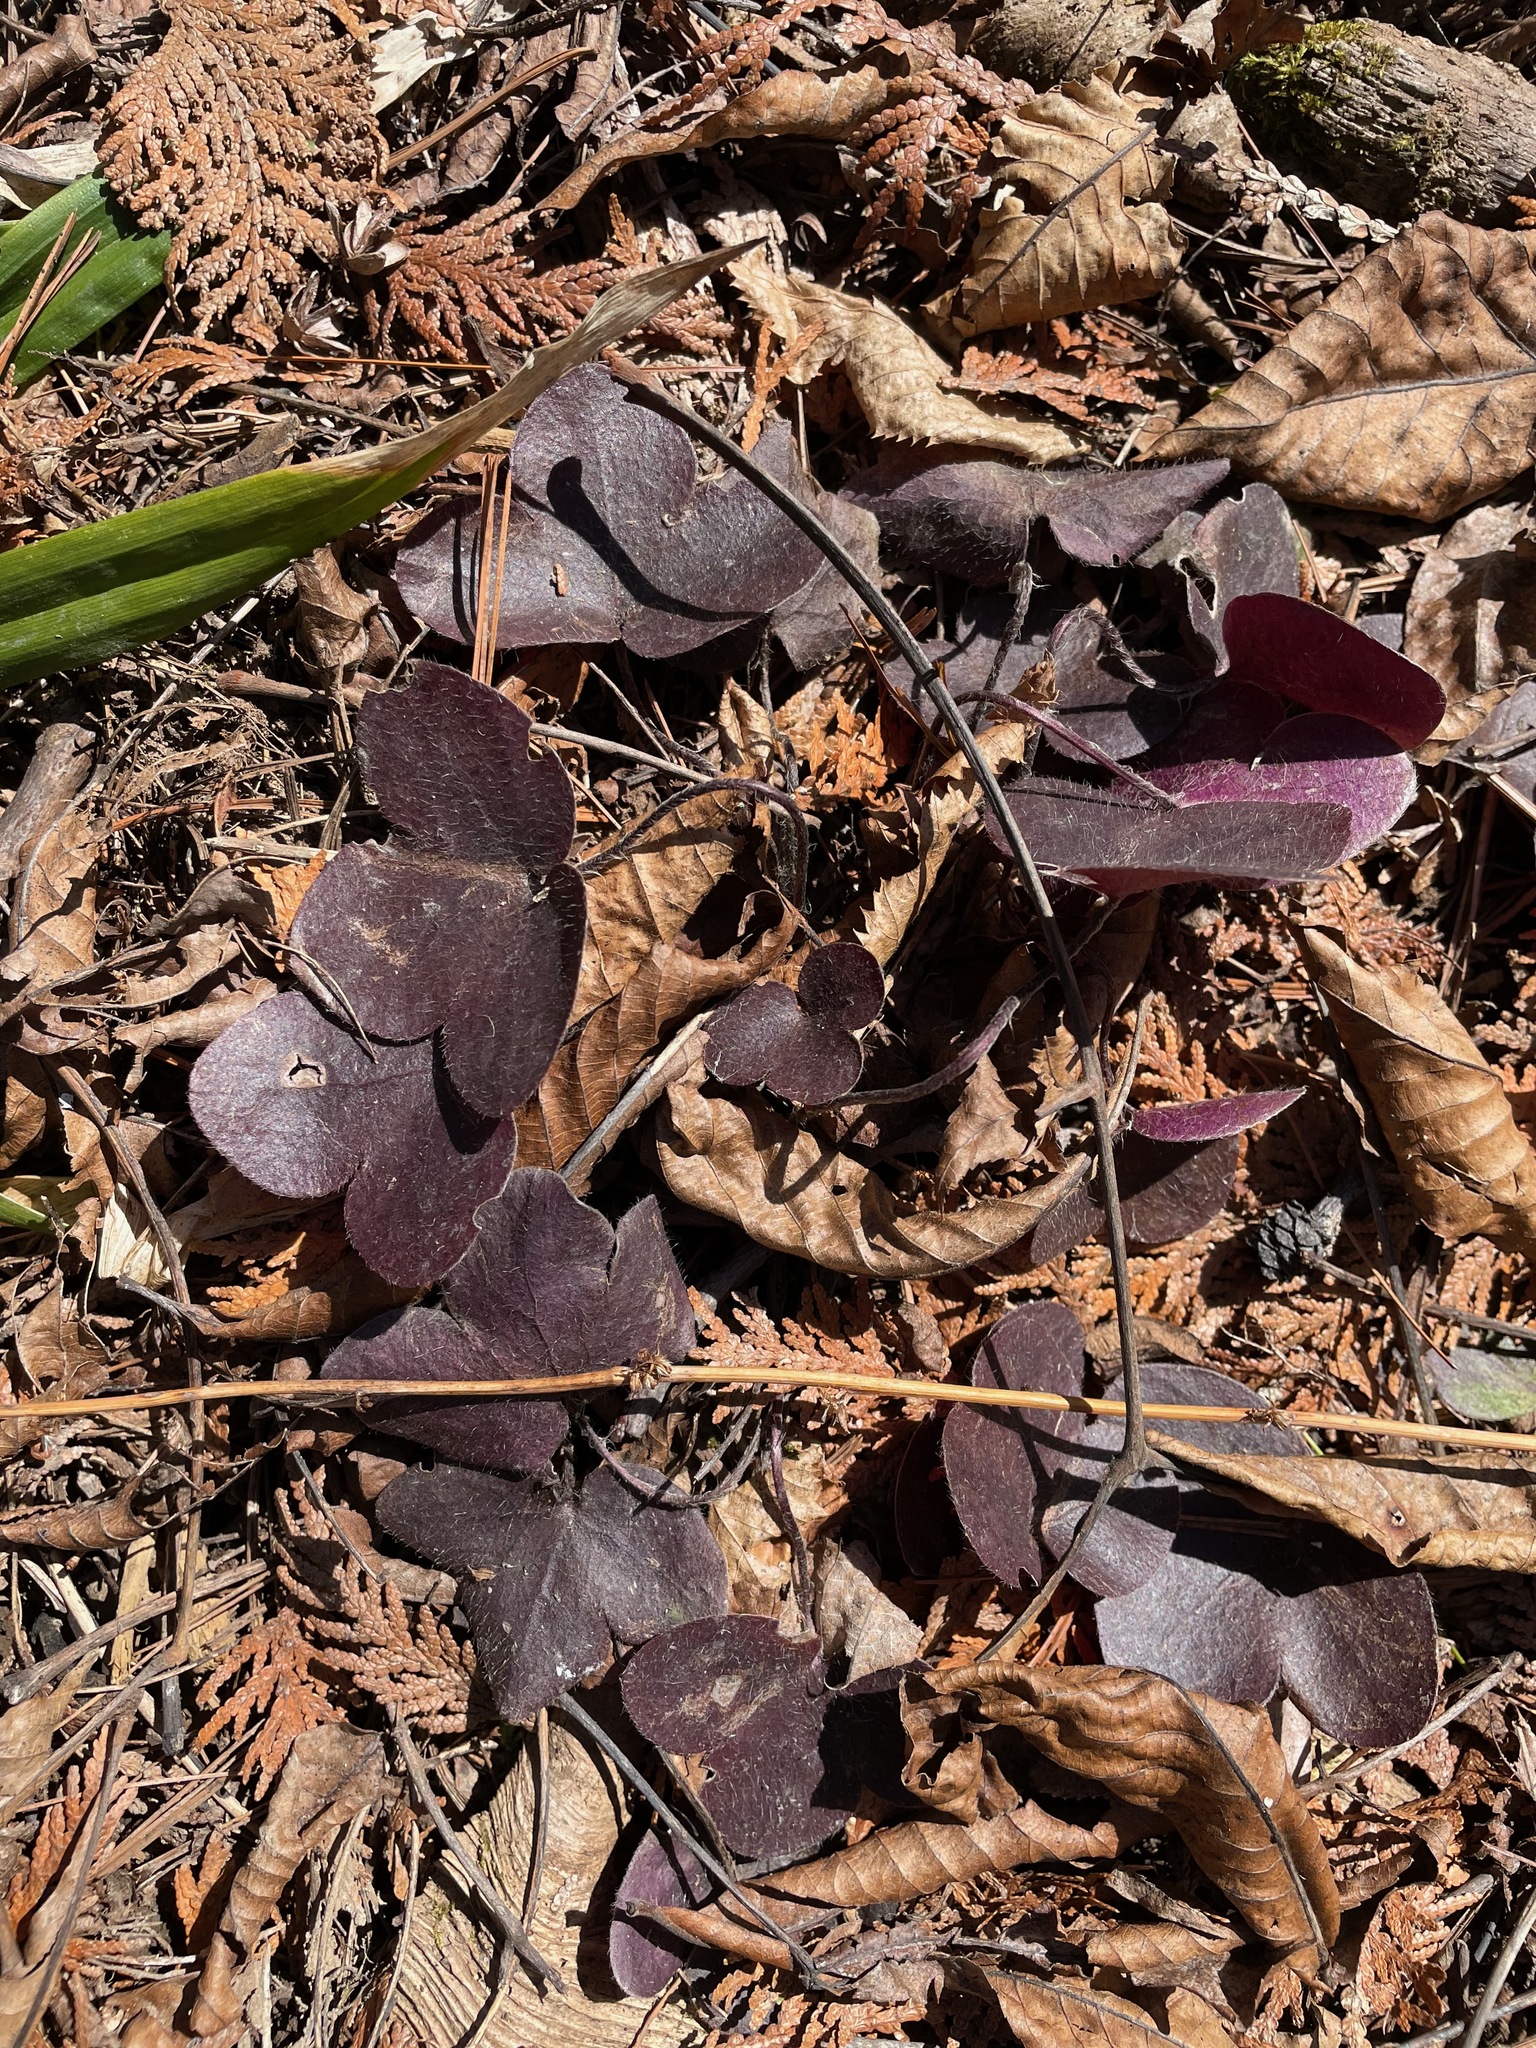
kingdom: Plantae
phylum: Tracheophyta
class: Magnoliopsida
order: Ranunculales
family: Ranunculaceae
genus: Hepatica
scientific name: Hepatica americana
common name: American hepatica
